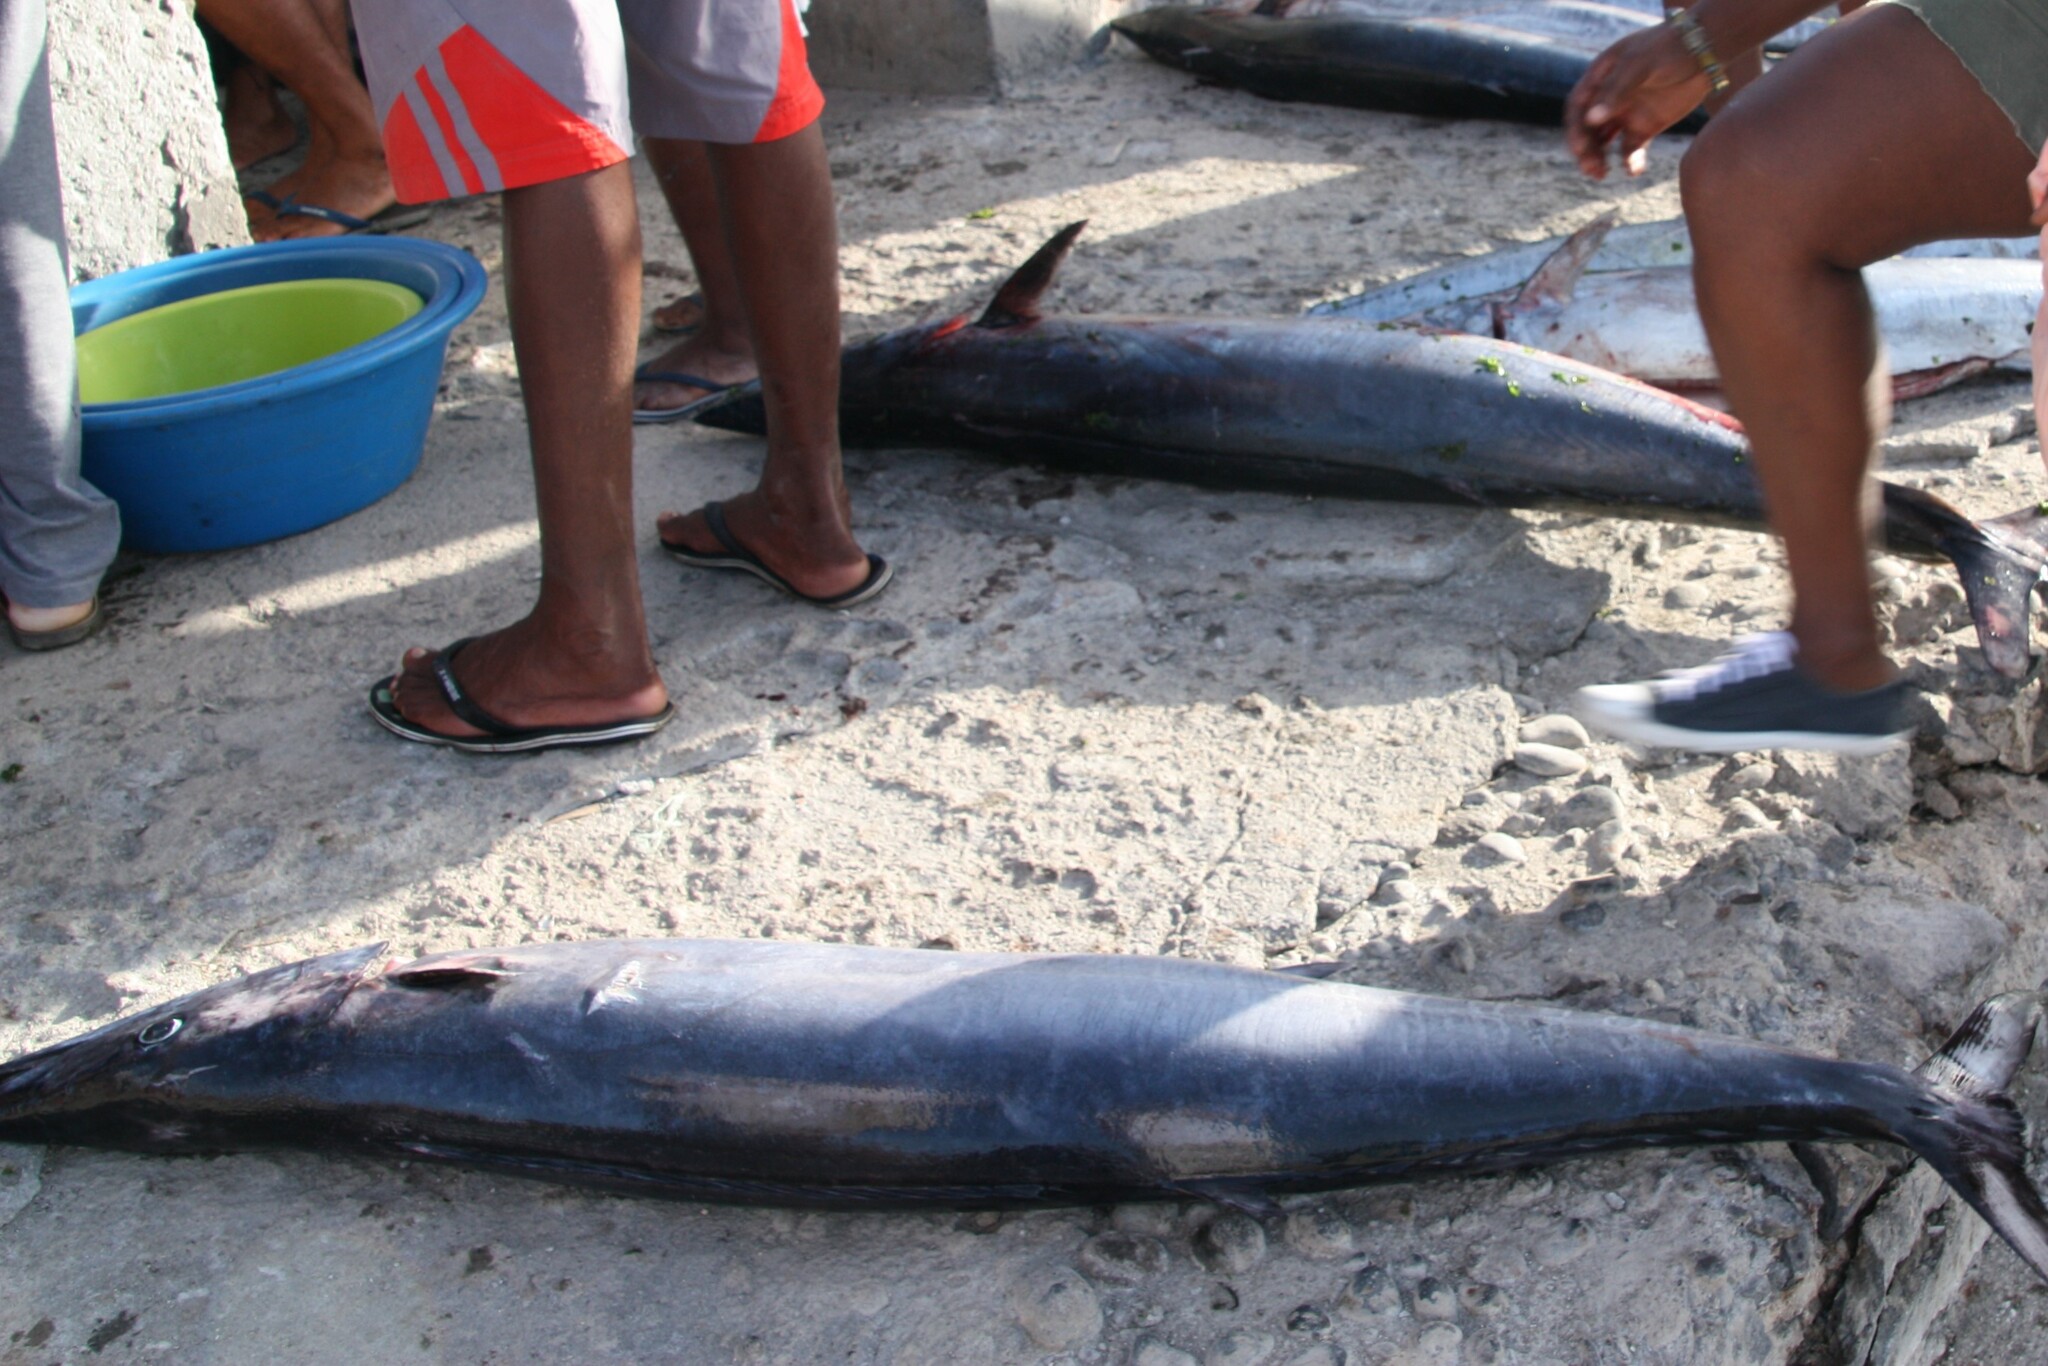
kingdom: Animalia
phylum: Chordata
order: Perciformes
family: Scombridae
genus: Acanthocybium
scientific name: Acanthocybium solandri
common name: Wahoo
